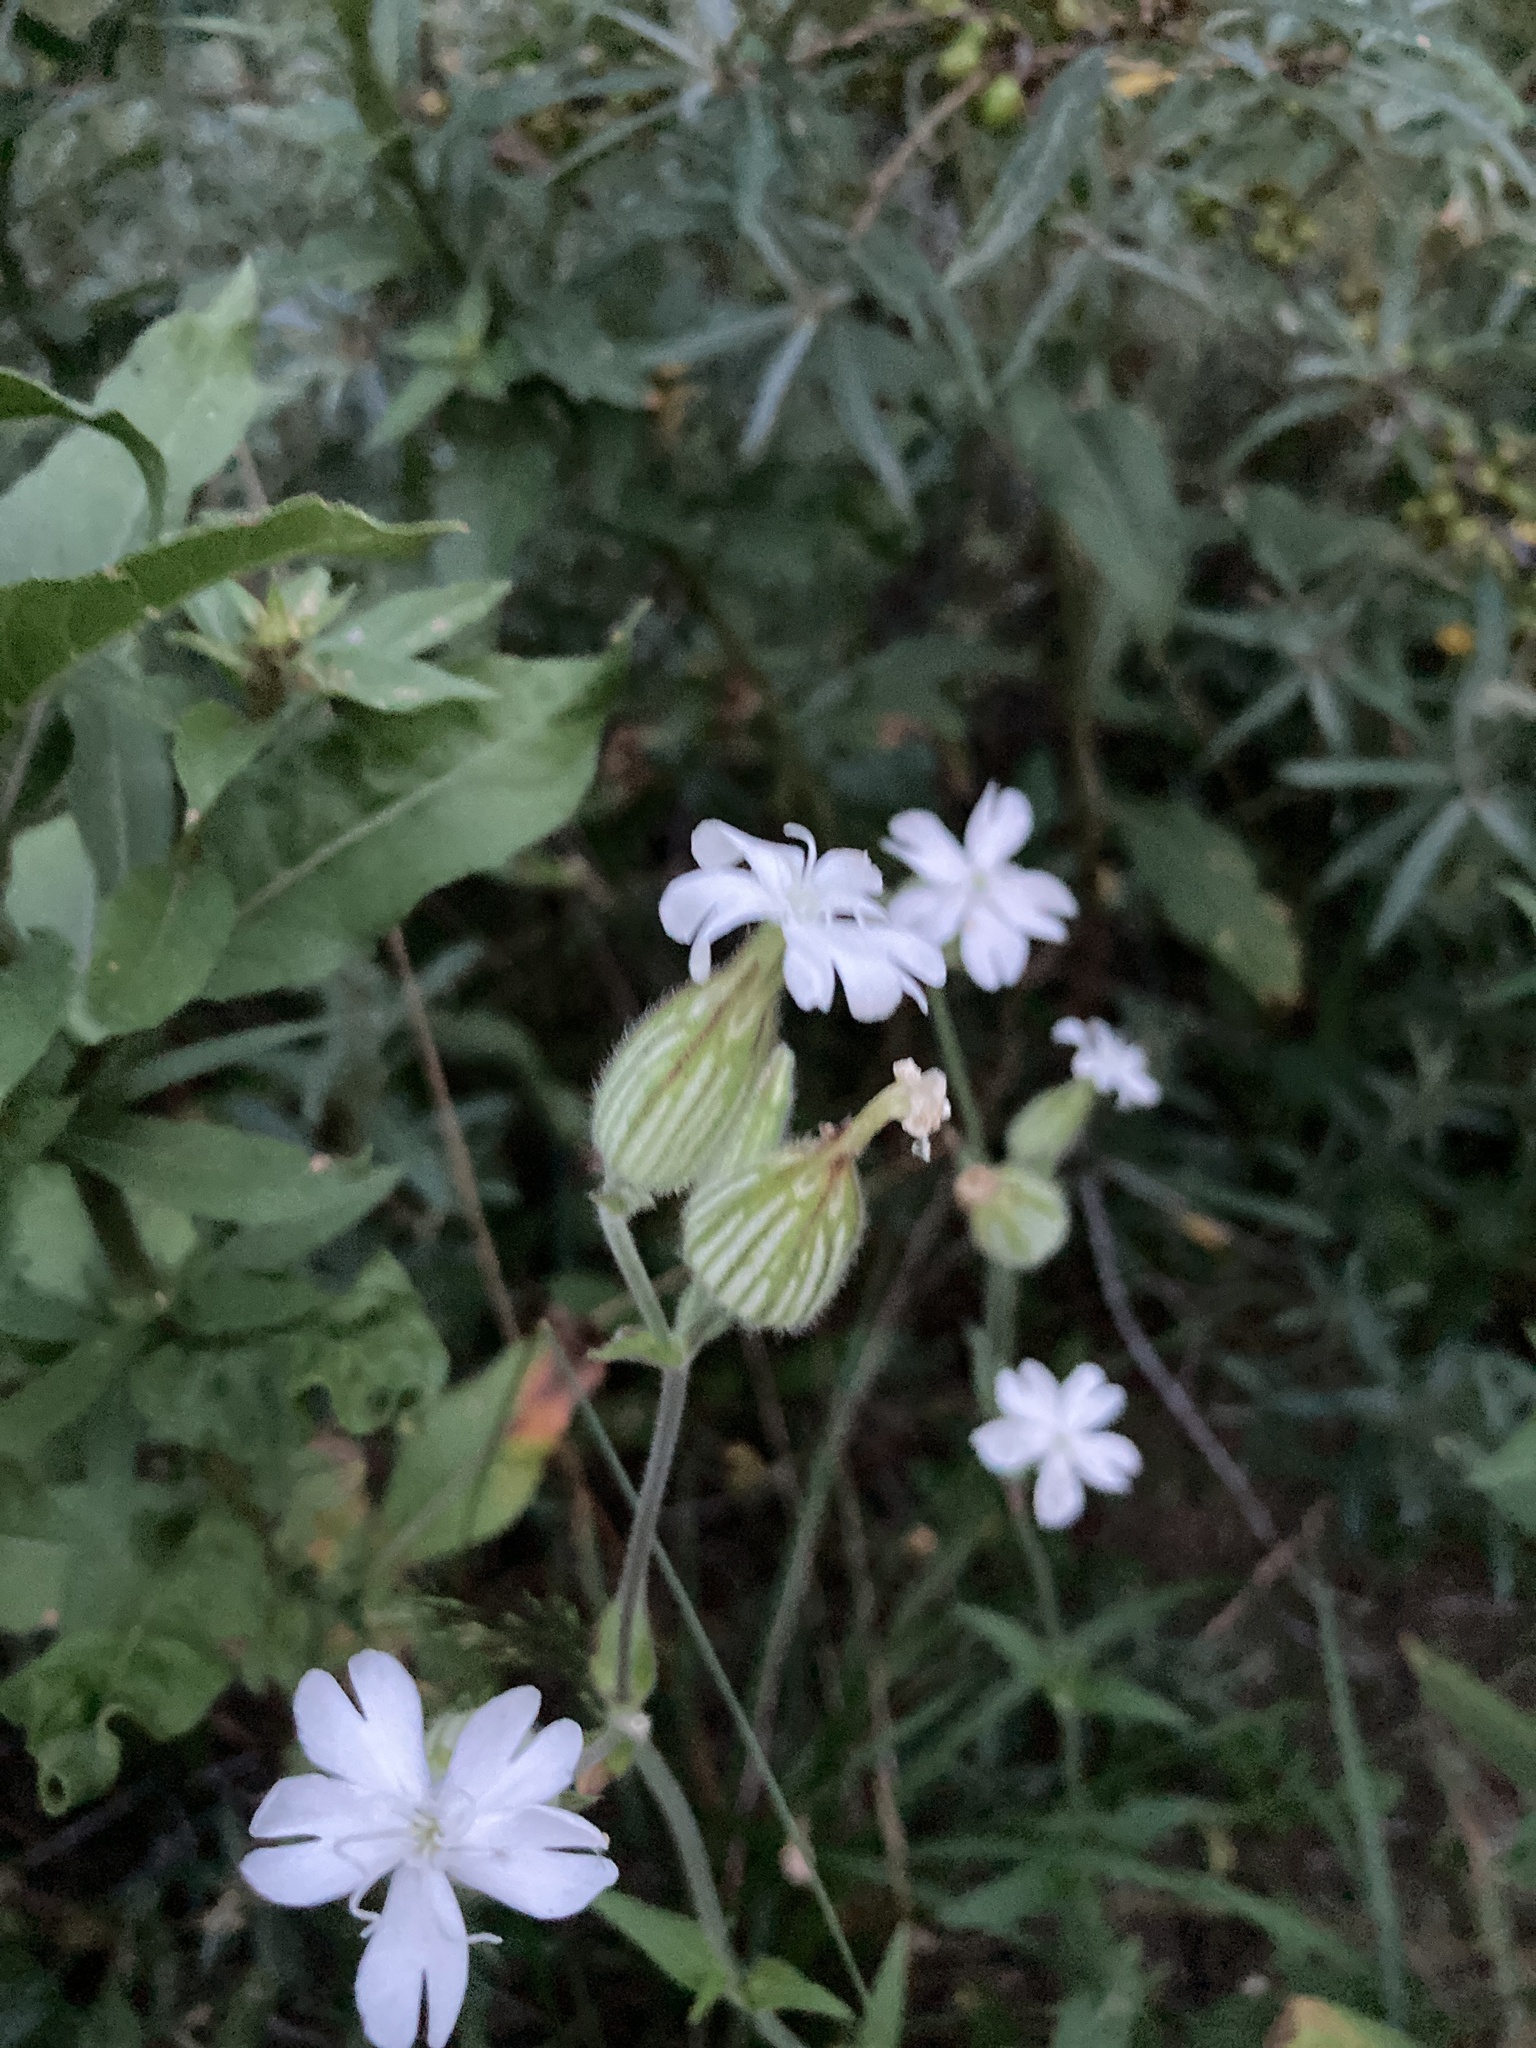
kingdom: Plantae
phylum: Tracheophyta
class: Magnoliopsida
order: Caryophyllales
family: Caryophyllaceae
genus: Silene
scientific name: Silene latifolia
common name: White campion
